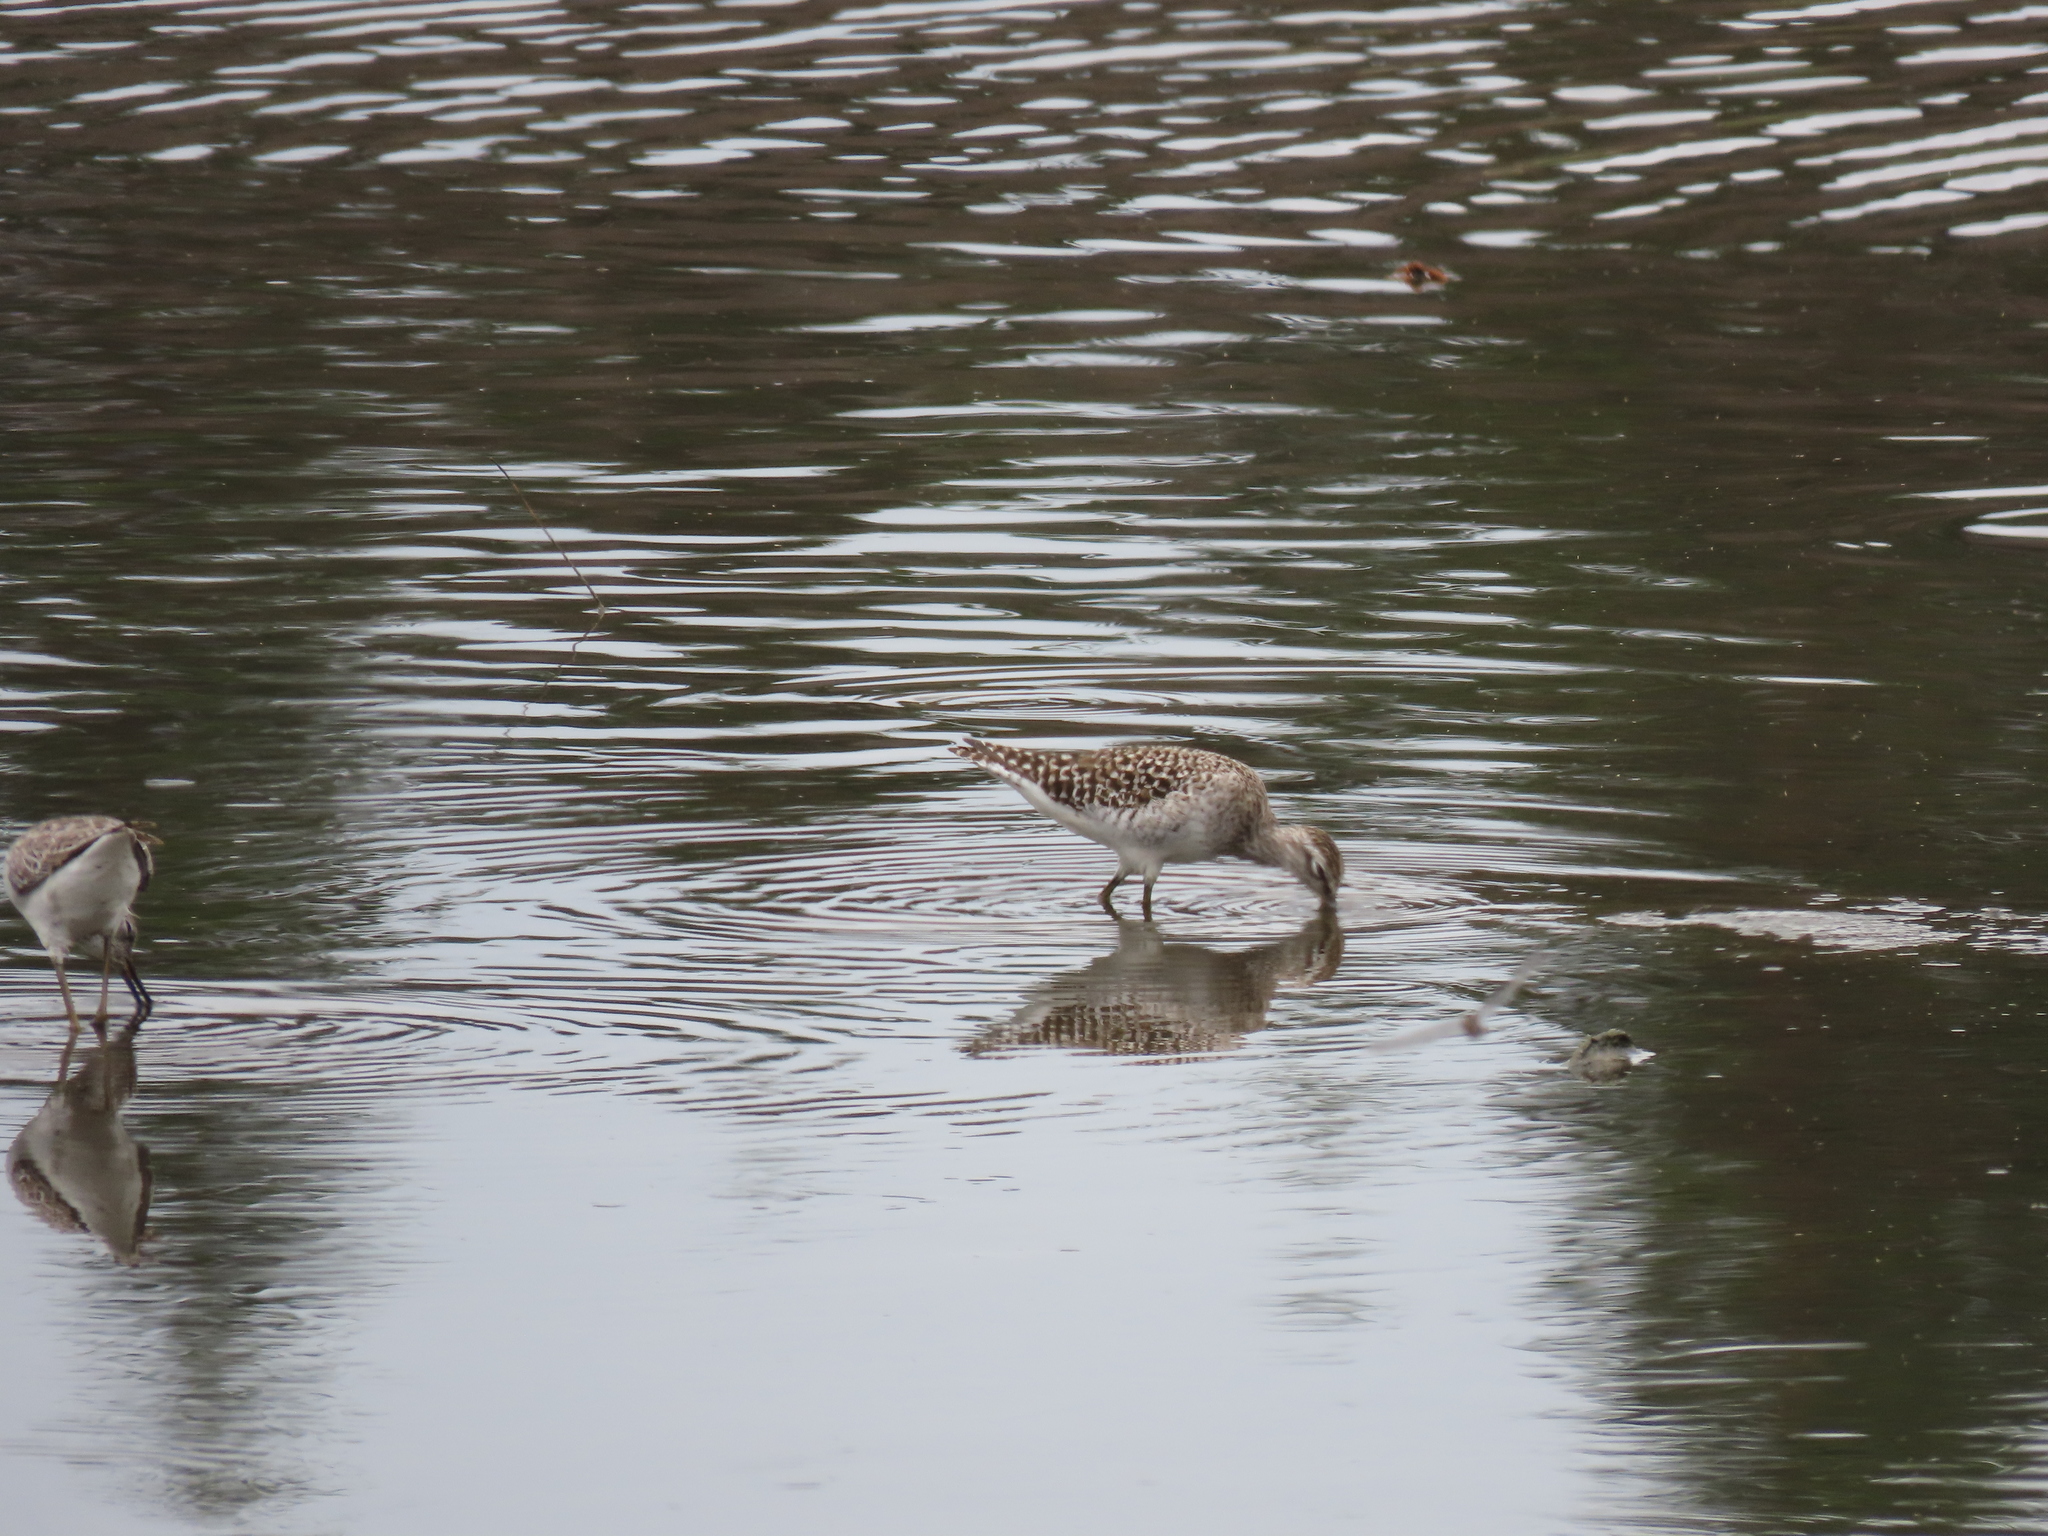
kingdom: Animalia
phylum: Chordata
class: Aves
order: Charadriiformes
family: Scolopacidae
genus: Tringa
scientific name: Tringa glareola
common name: Wood sandpiper
